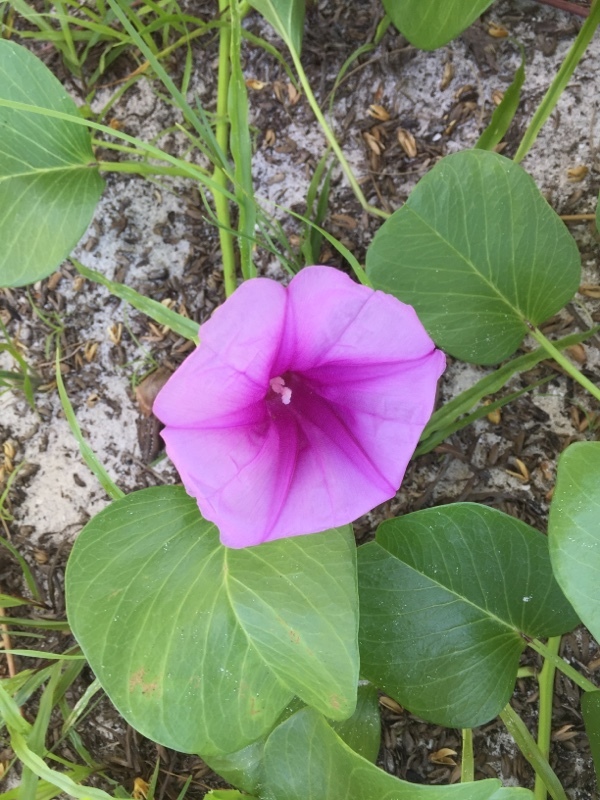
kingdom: Plantae
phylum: Tracheophyta
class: Magnoliopsida
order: Solanales
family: Convolvulaceae
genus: Ipomoea
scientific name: Ipomoea pes-caprae
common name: Beach morning glory
